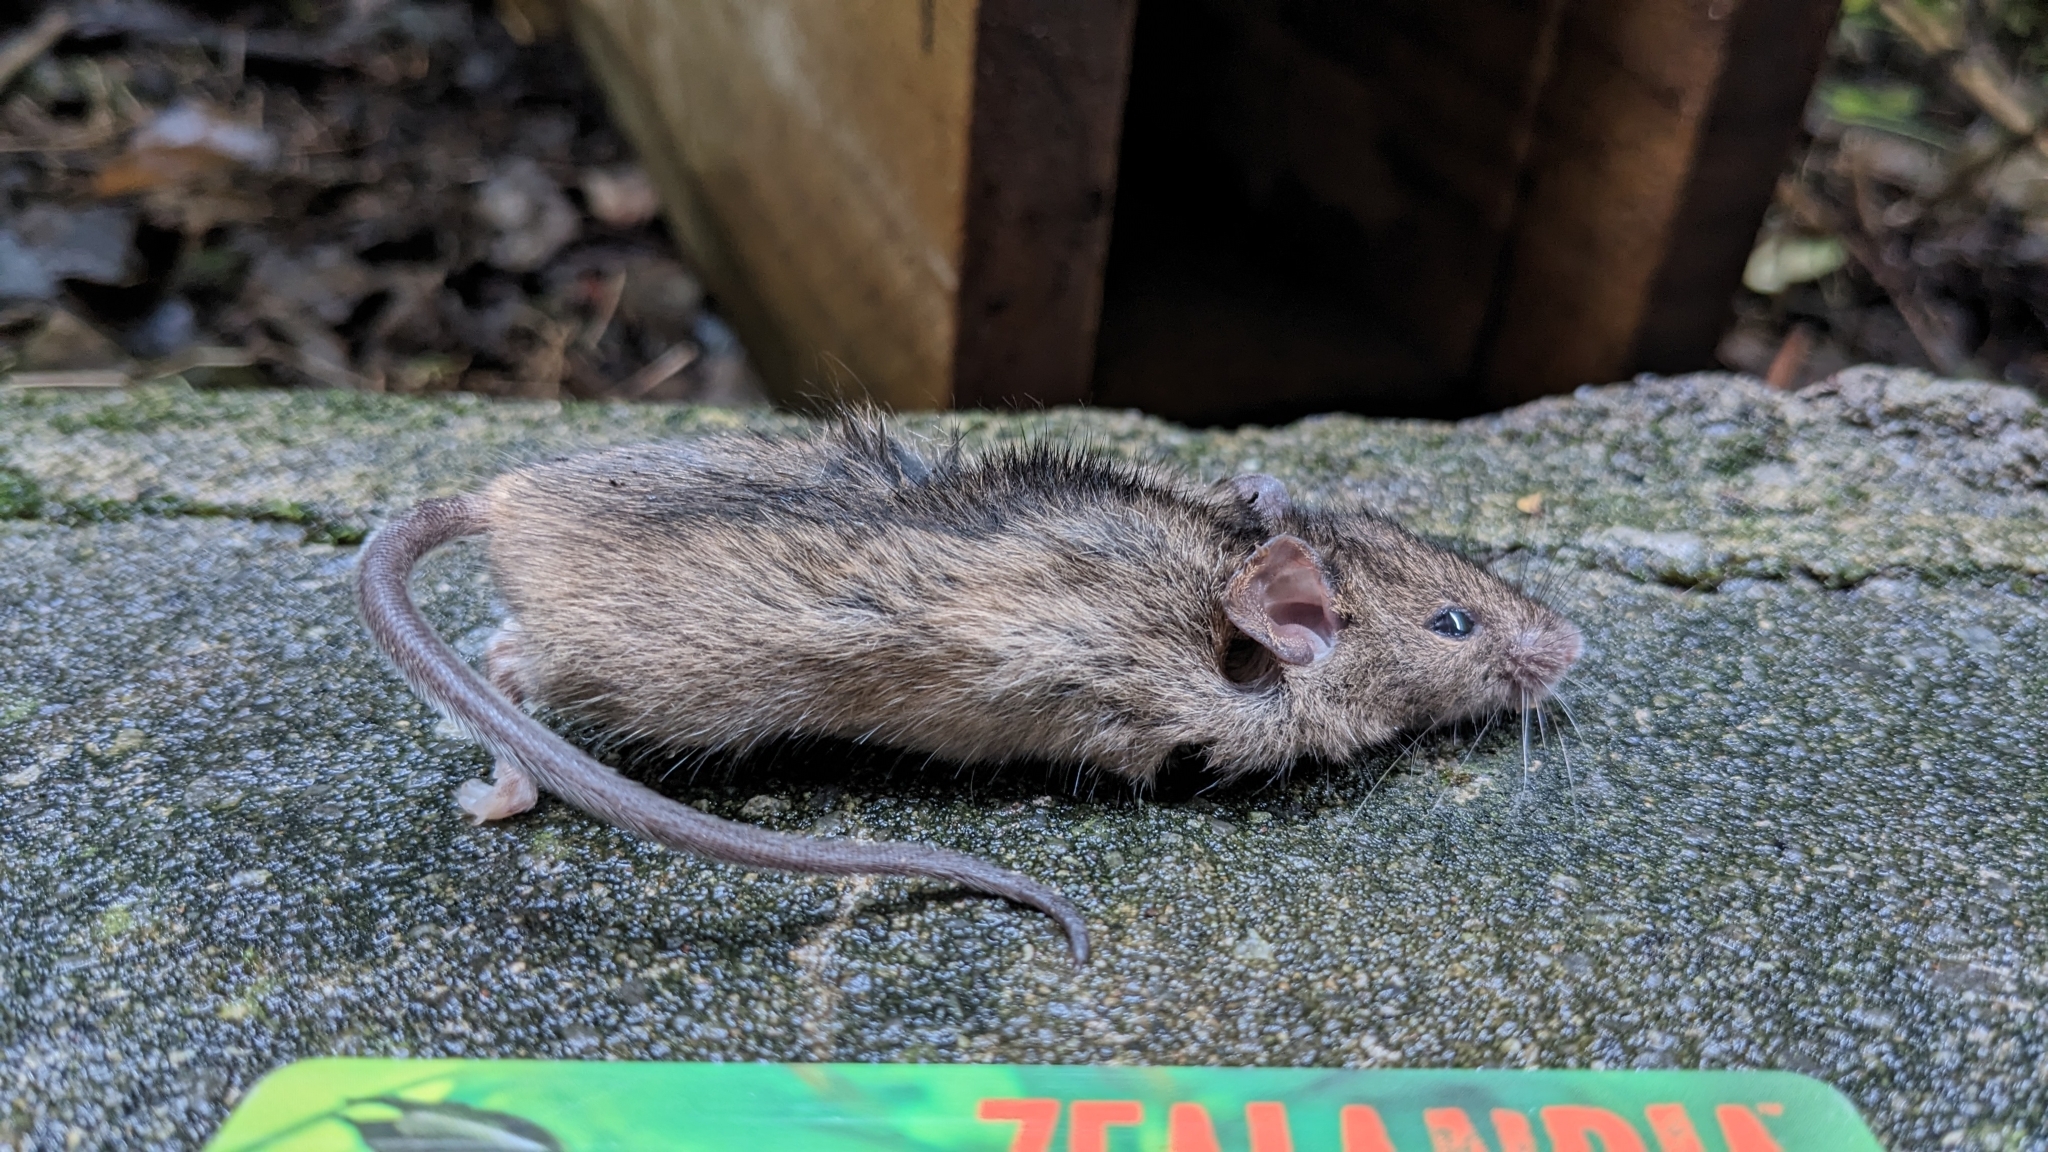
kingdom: Animalia
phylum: Chordata
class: Mammalia
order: Rodentia
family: Muridae
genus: Mus
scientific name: Mus musculus
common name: House mouse
